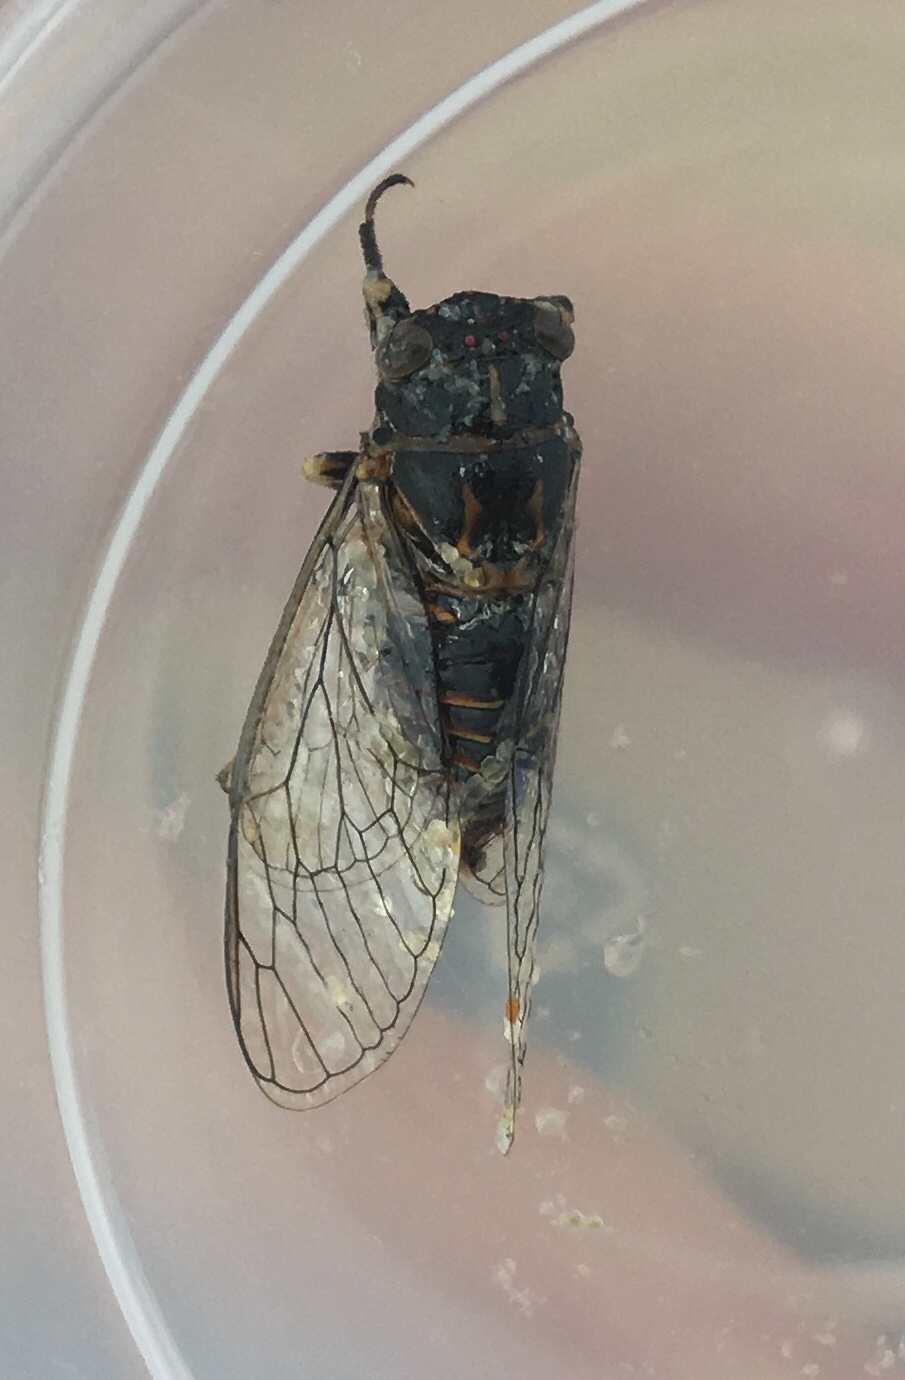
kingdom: Animalia
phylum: Arthropoda
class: Insecta
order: Hemiptera
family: Cicadidae
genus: Haemopsalta
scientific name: Haemopsalta aktites
